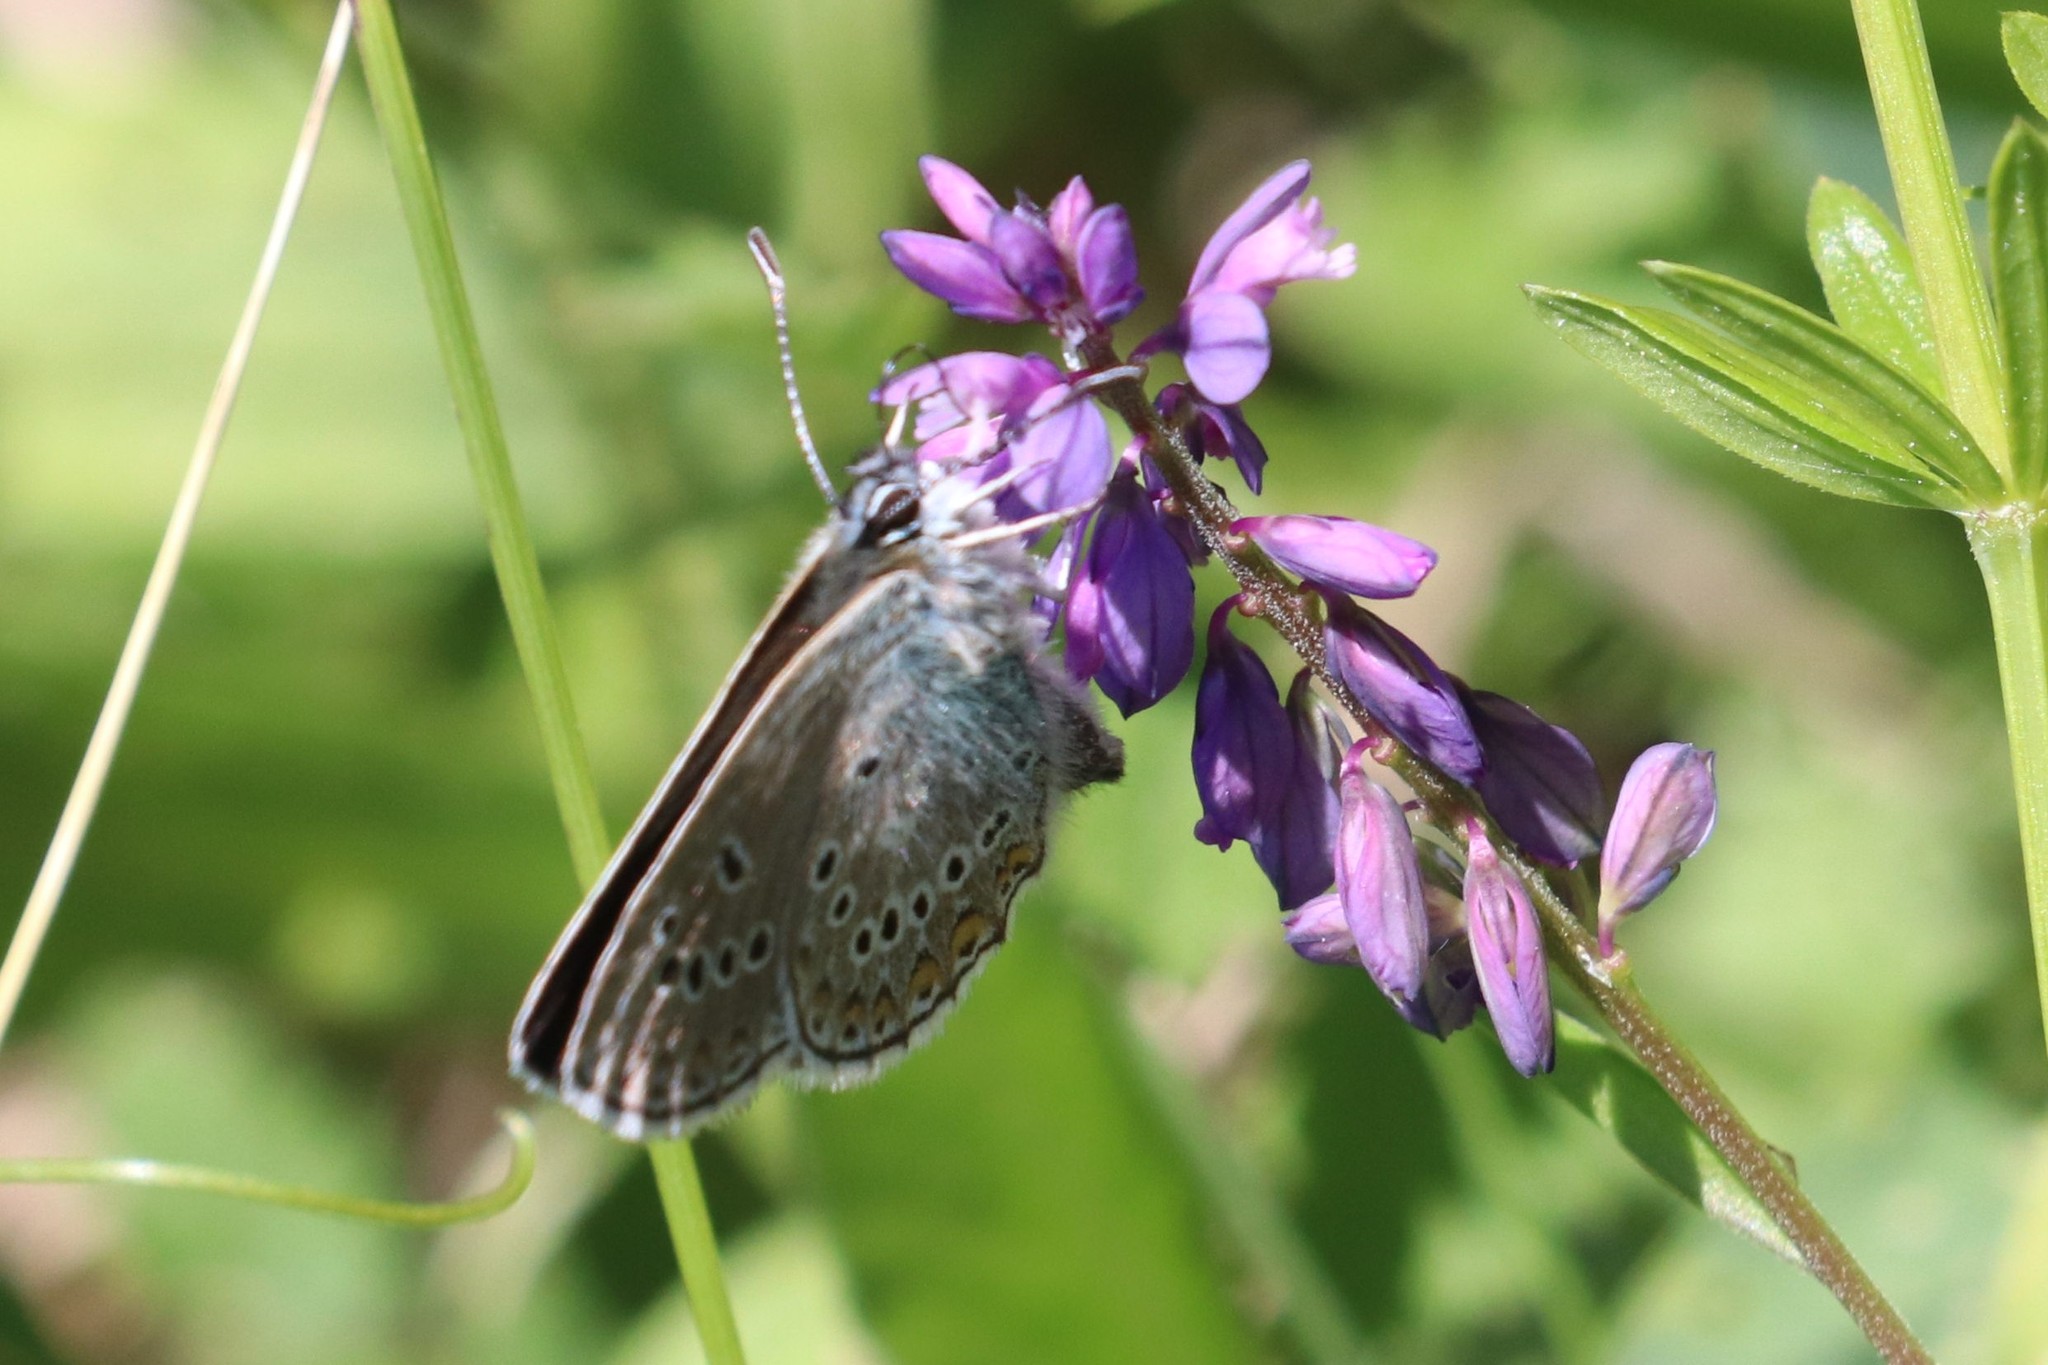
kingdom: Animalia
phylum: Arthropoda
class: Insecta
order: Lepidoptera
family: Lycaenidae
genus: Plebejus
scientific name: Plebejus amanda
